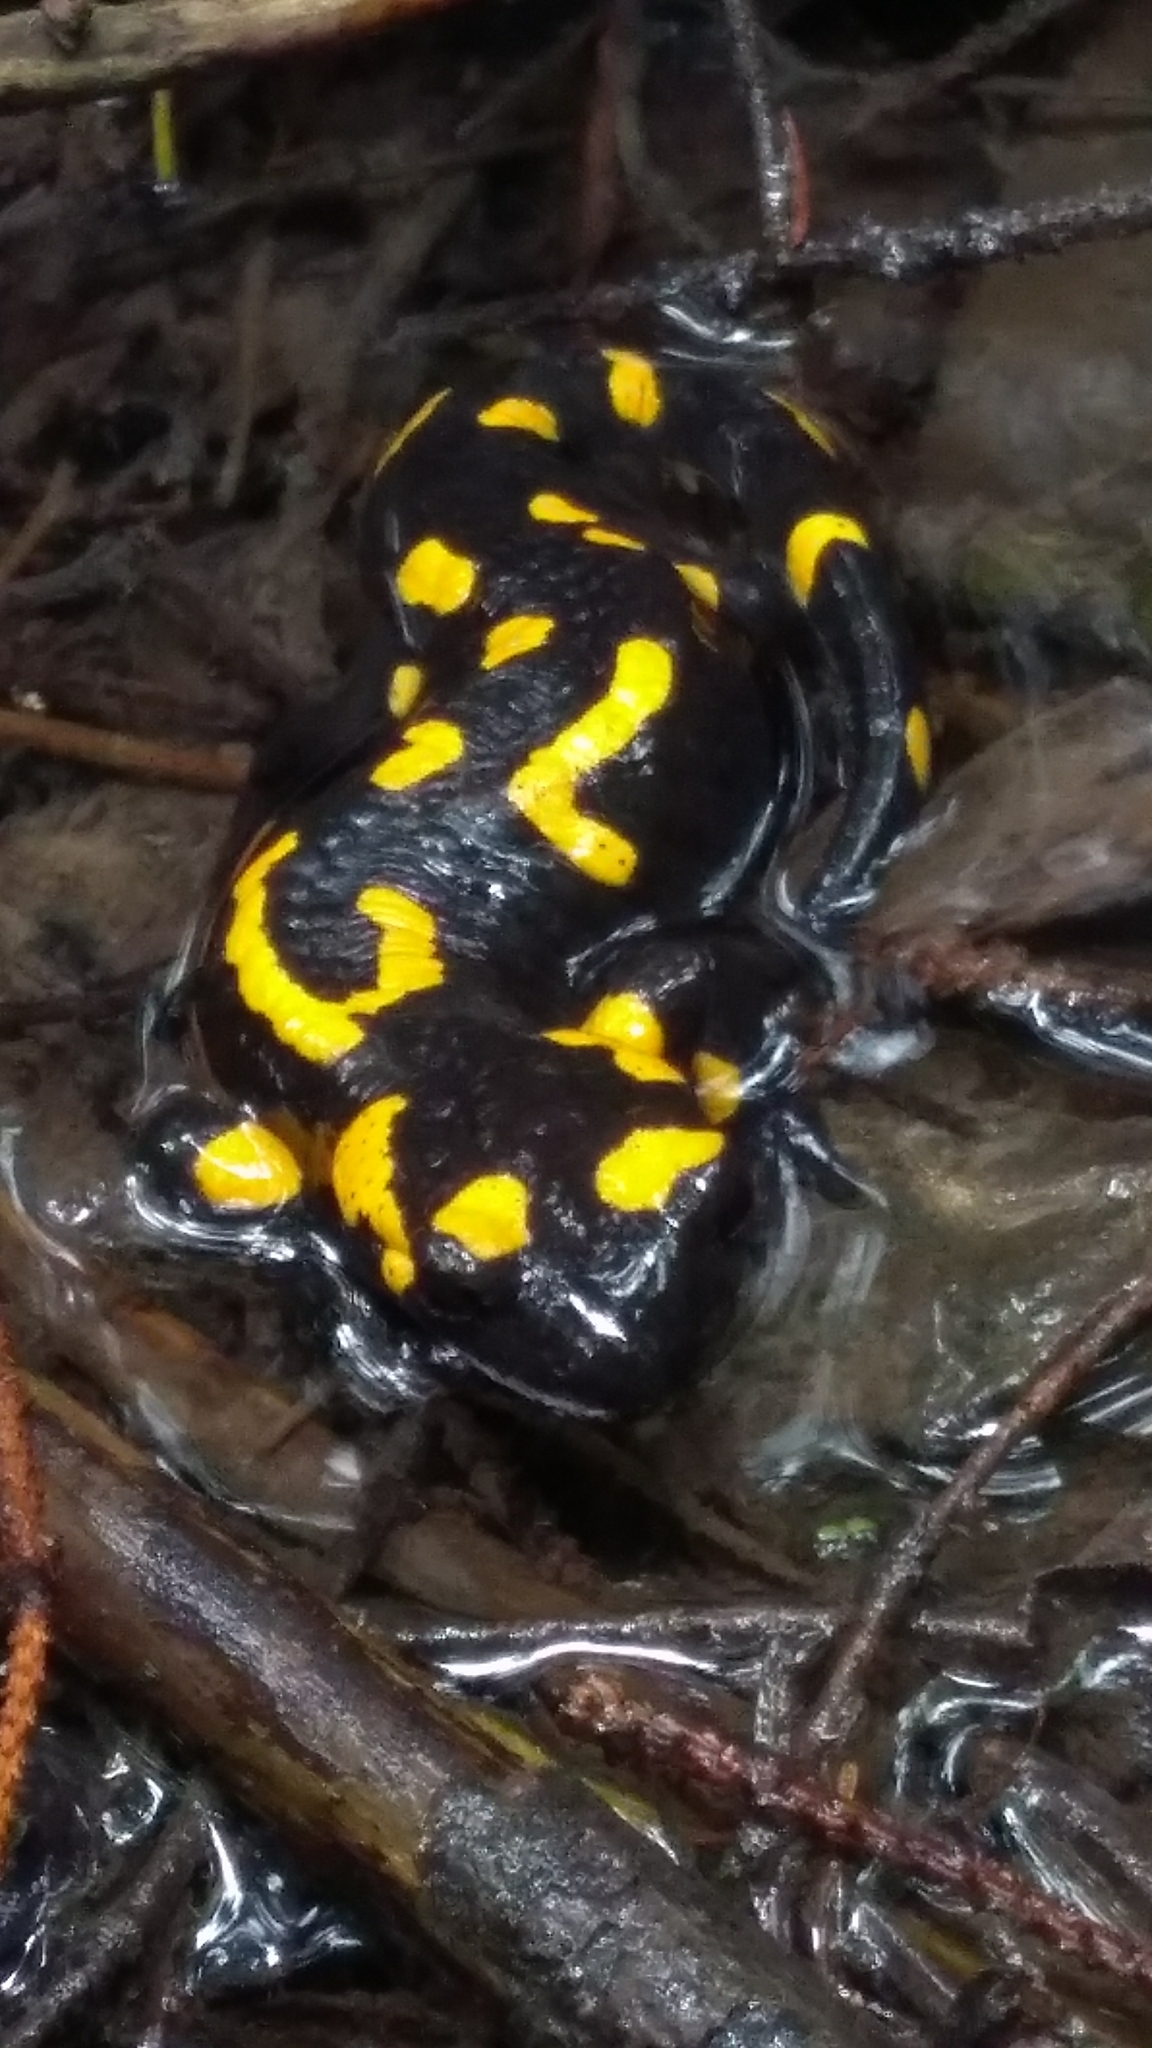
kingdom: Animalia
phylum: Chordata
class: Amphibia
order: Caudata
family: Salamandridae
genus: Salamandra
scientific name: Salamandra salamandra
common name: Fire salamander
